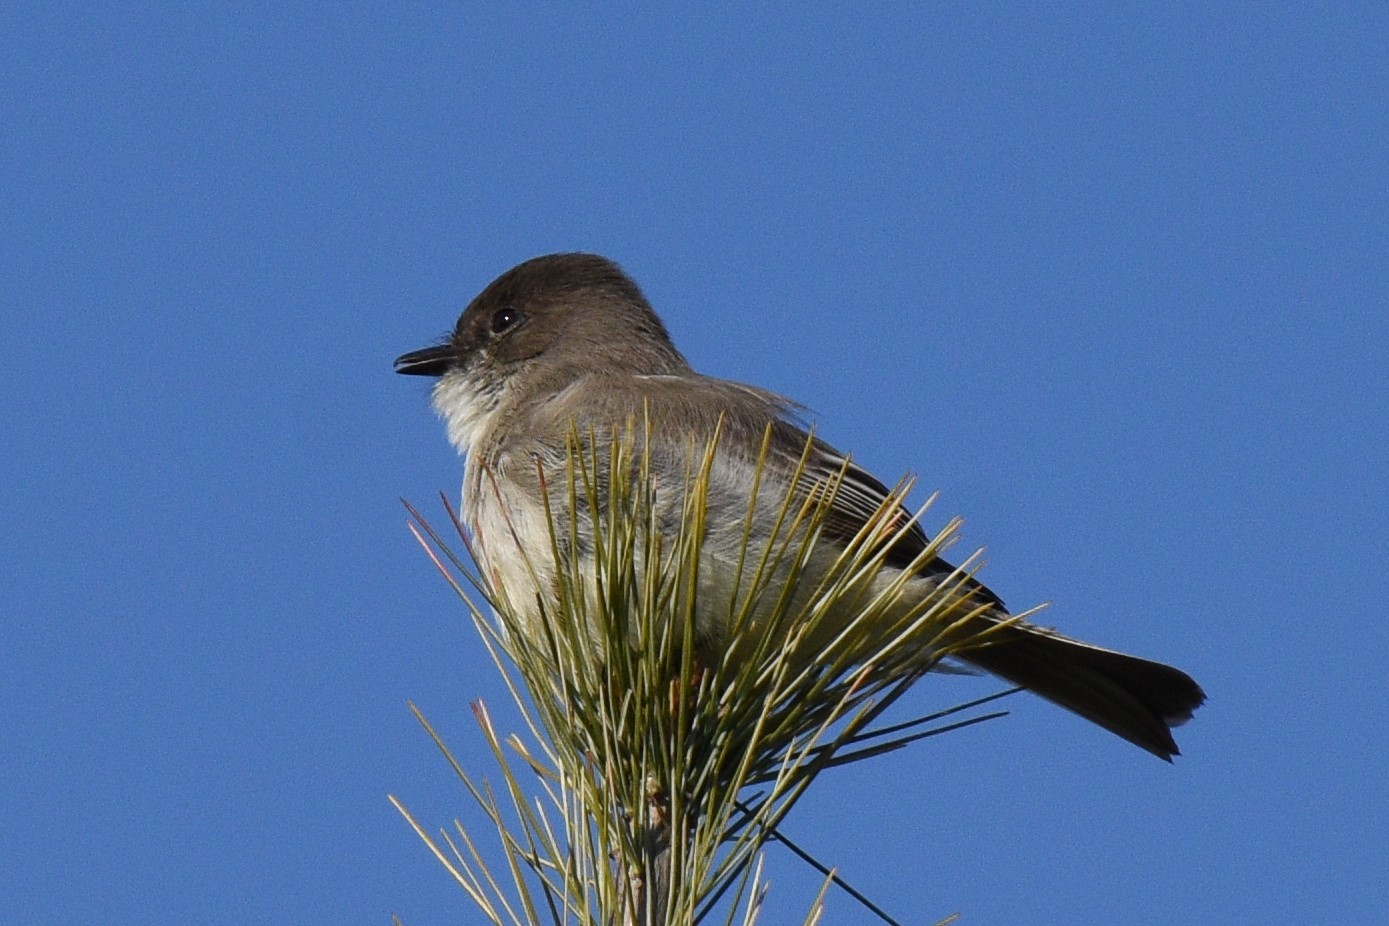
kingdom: Animalia
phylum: Chordata
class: Aves
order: Passeriformes
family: Tyrannidae
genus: Sayornis
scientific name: Sayornis phoebe
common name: Eastern phoebe
